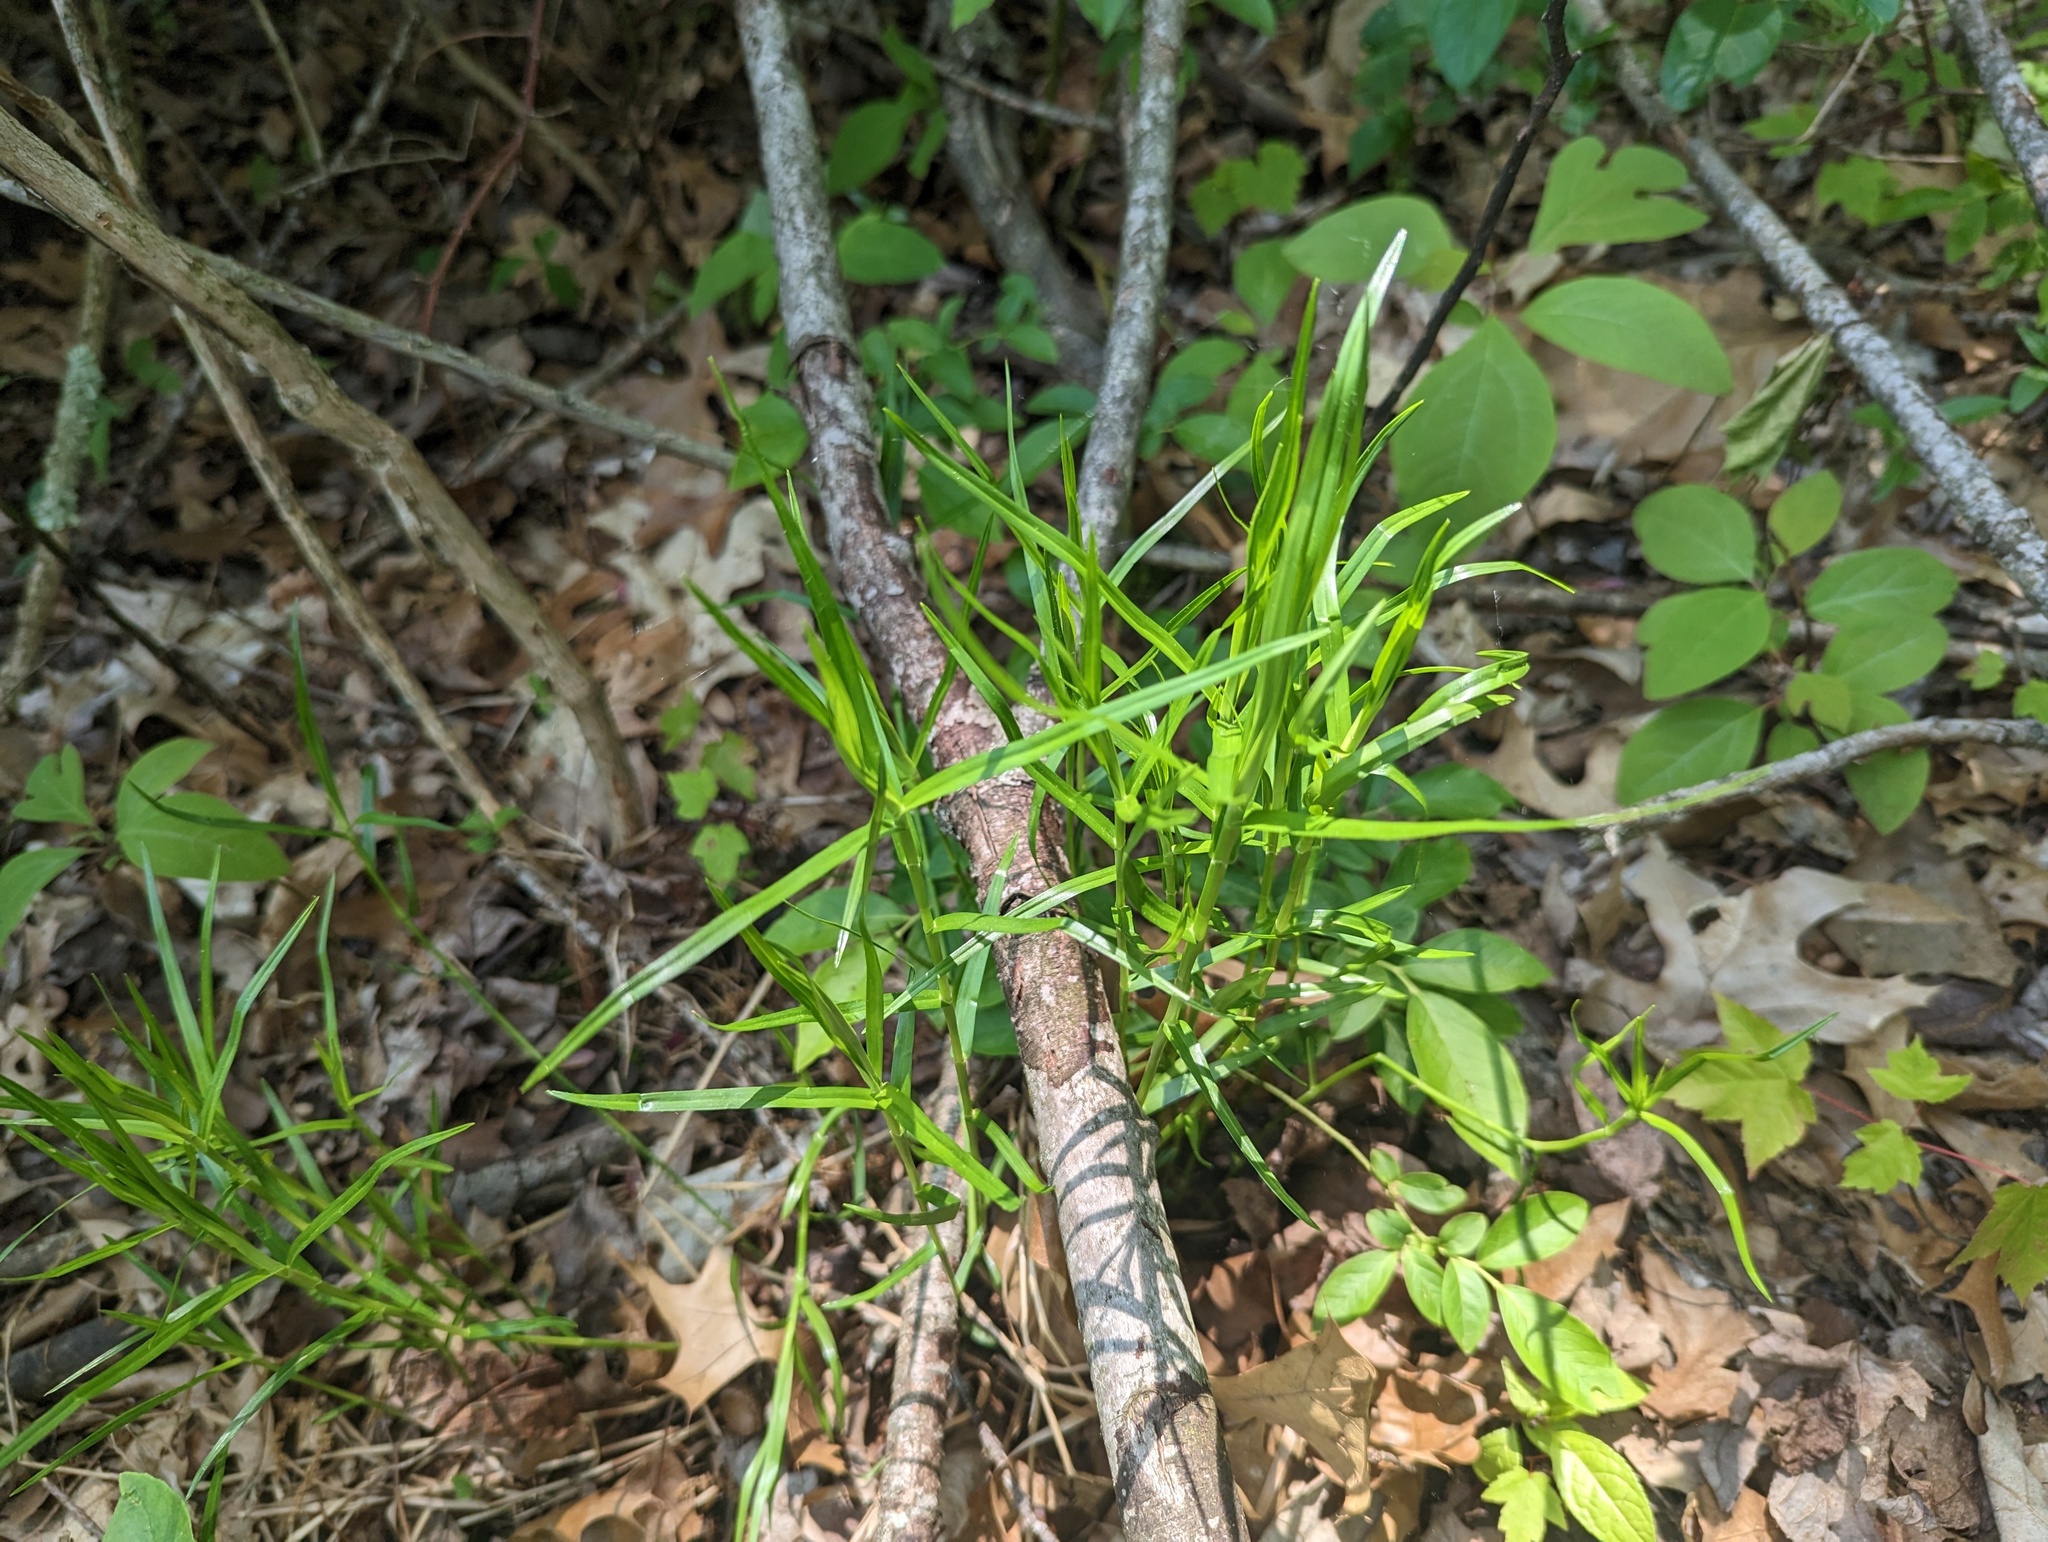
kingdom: Plantae
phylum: Tracheophyta
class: Liliopsida
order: Poales
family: Cyperaceae
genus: Dulichium
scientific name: Dulichium arundinaceum
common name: Three-way sedge
